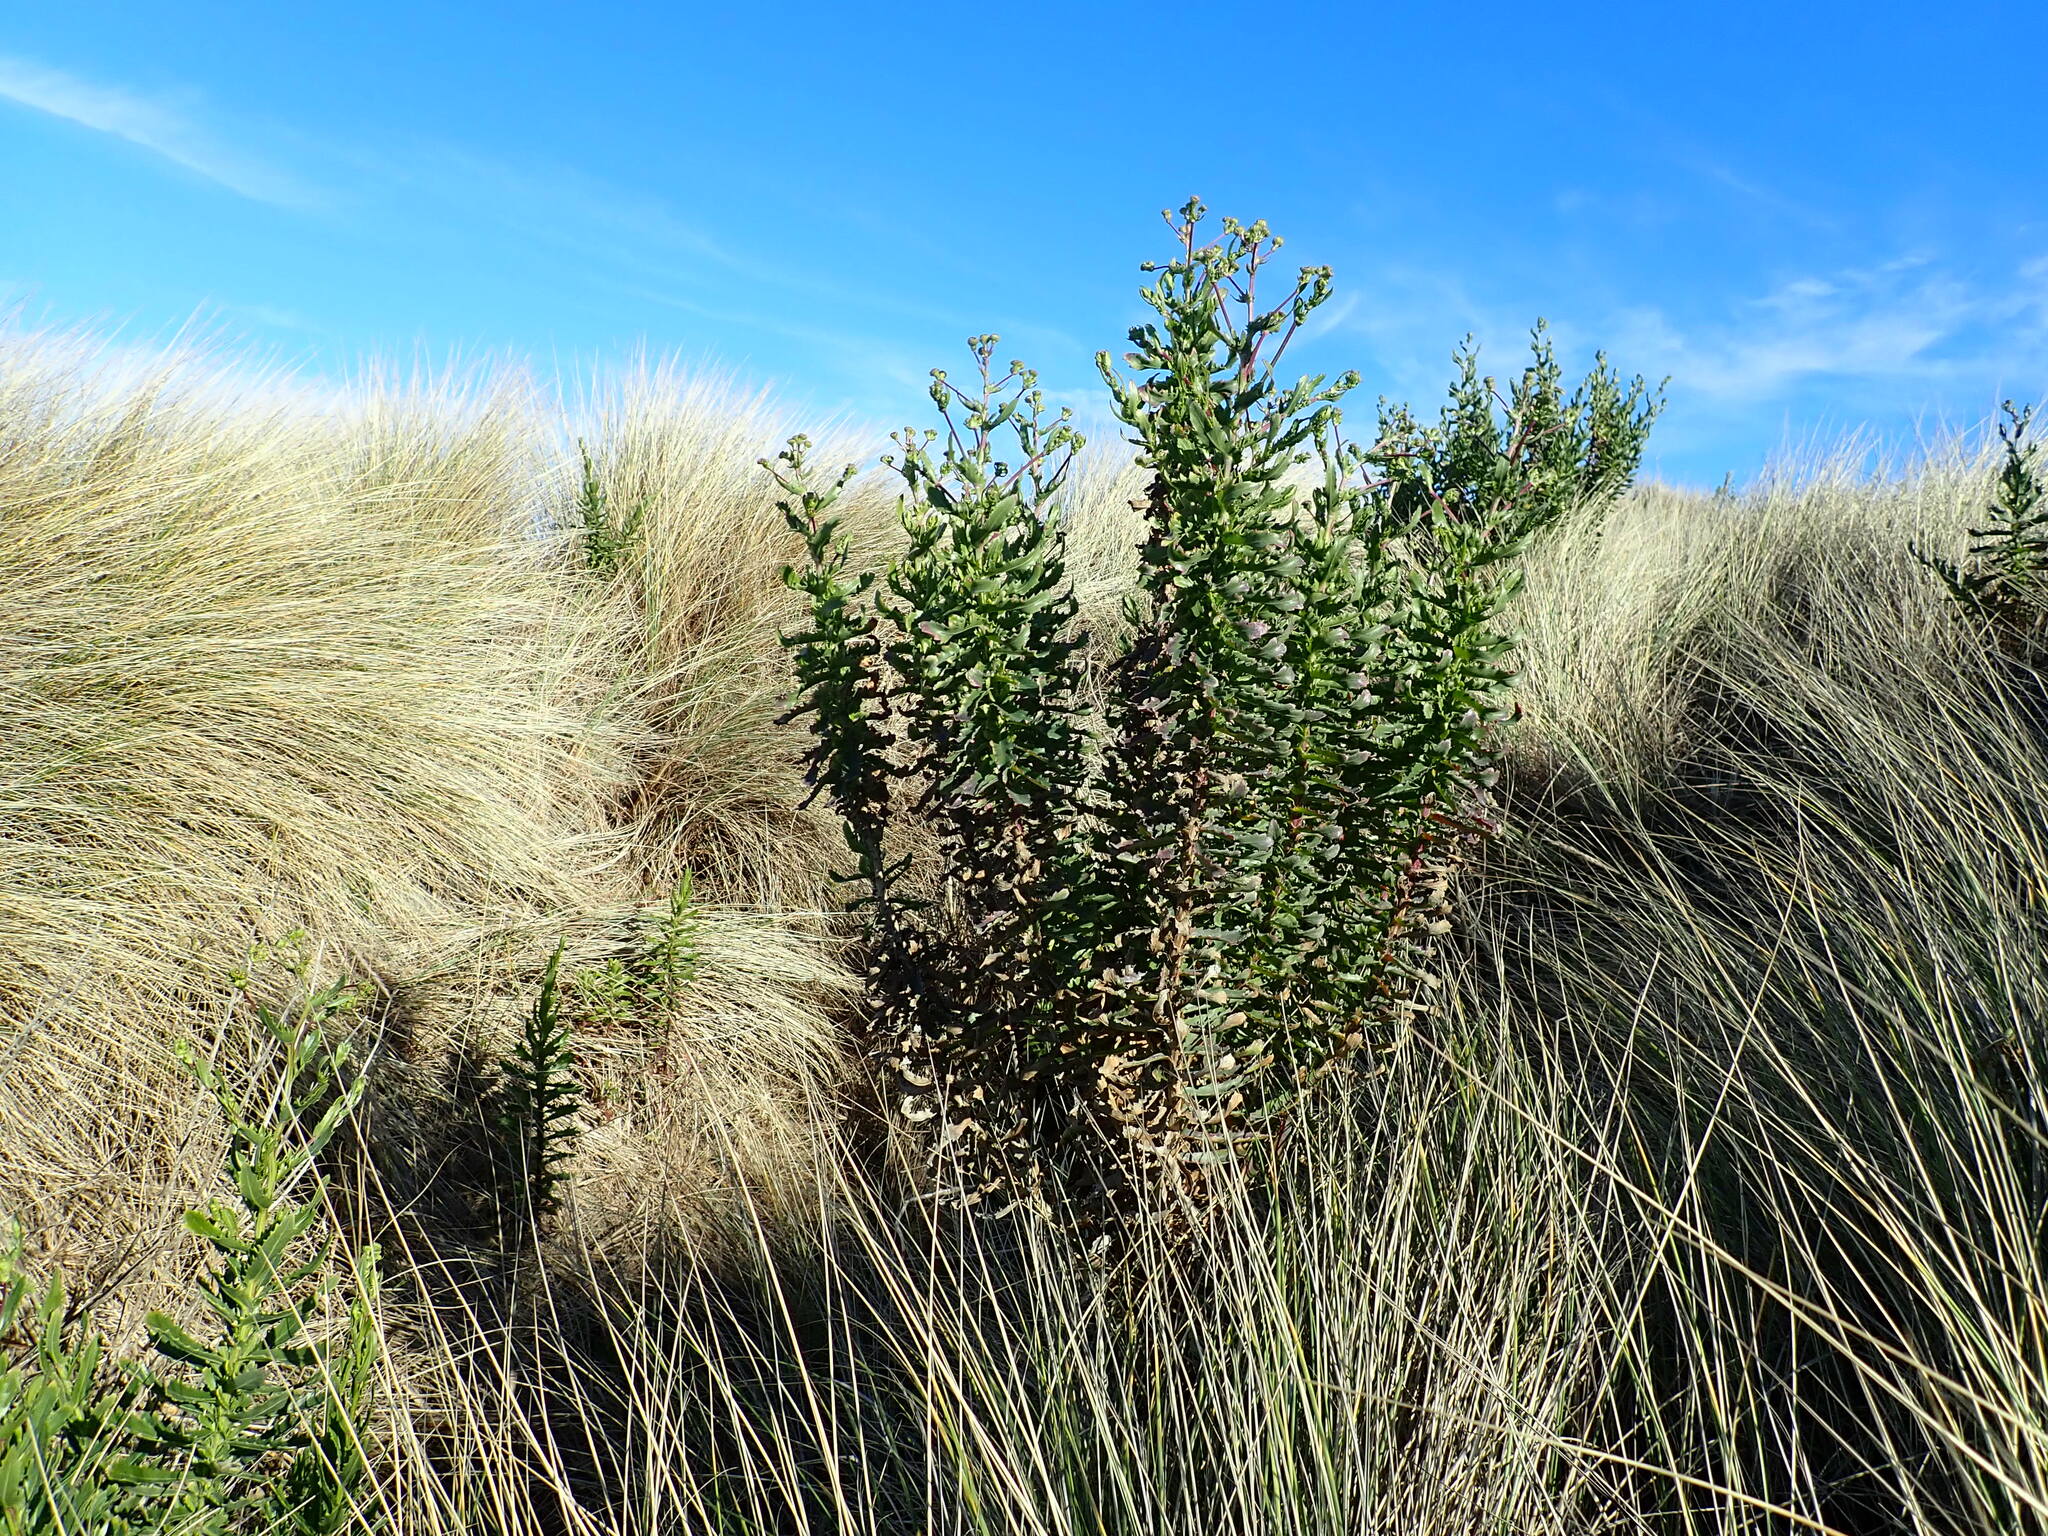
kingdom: Plantae
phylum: Tracheophyta
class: Magnoliopsida
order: Asterales
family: Asteraceae
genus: Senecio
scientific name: Senecio glastifolius
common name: Woad-leaved ragwort
